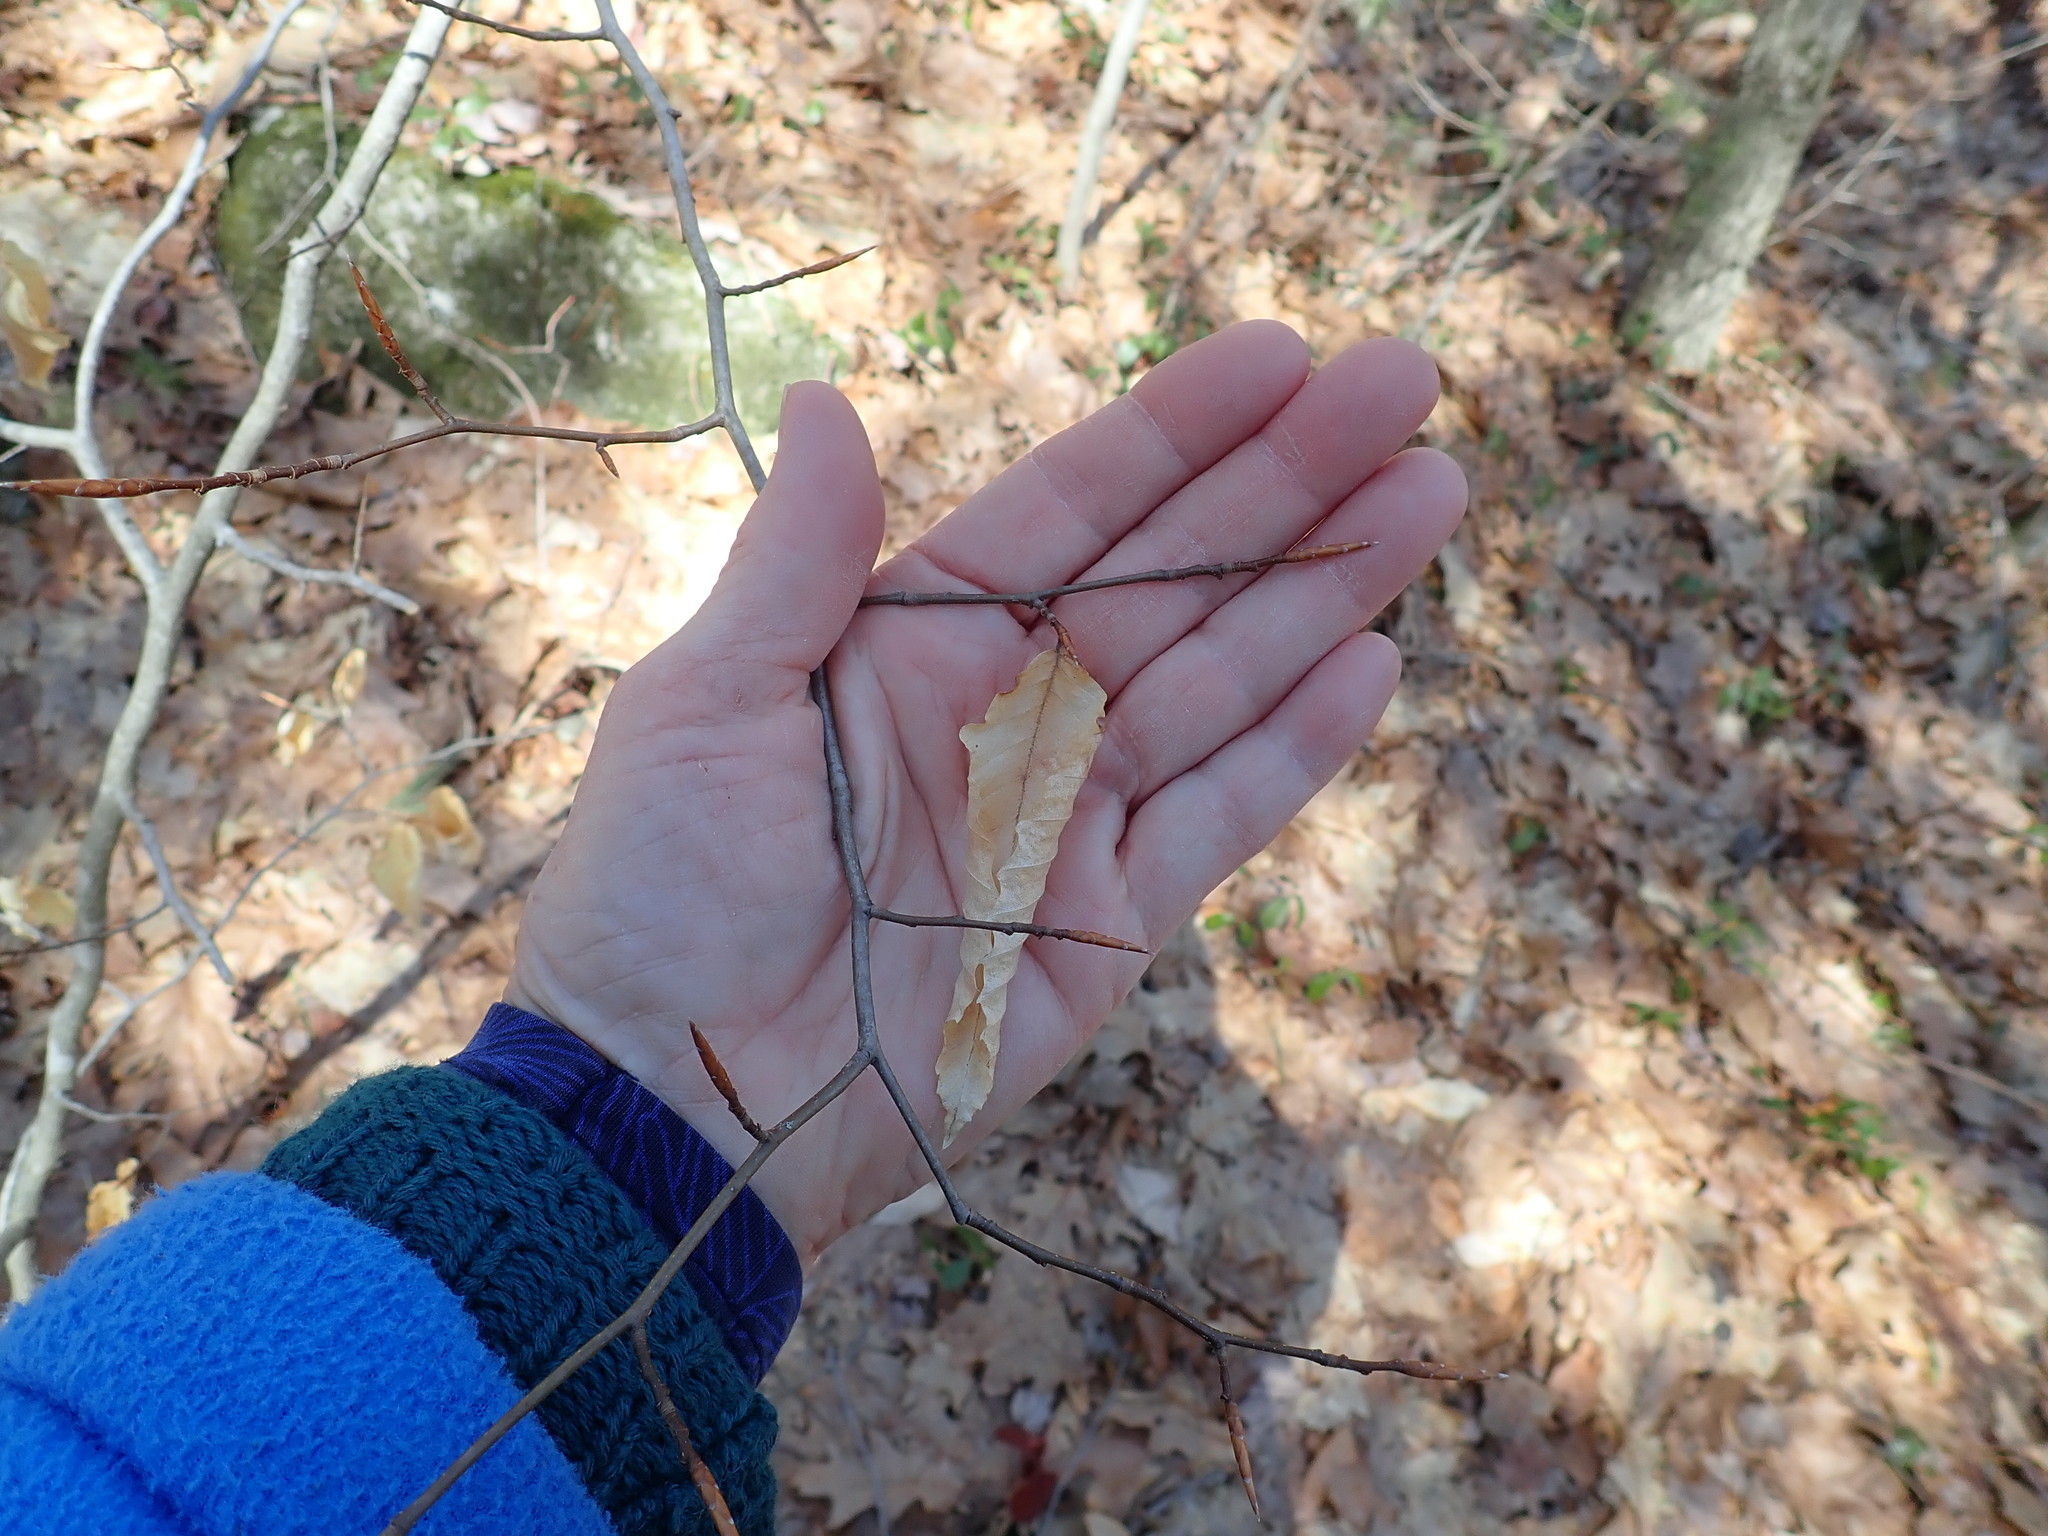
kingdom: Plantae
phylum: Tracheophyta
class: Magnoliopsida
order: Fagales
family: Fagaceae
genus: Fagus
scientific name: Fagus grandifolia
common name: American beech
